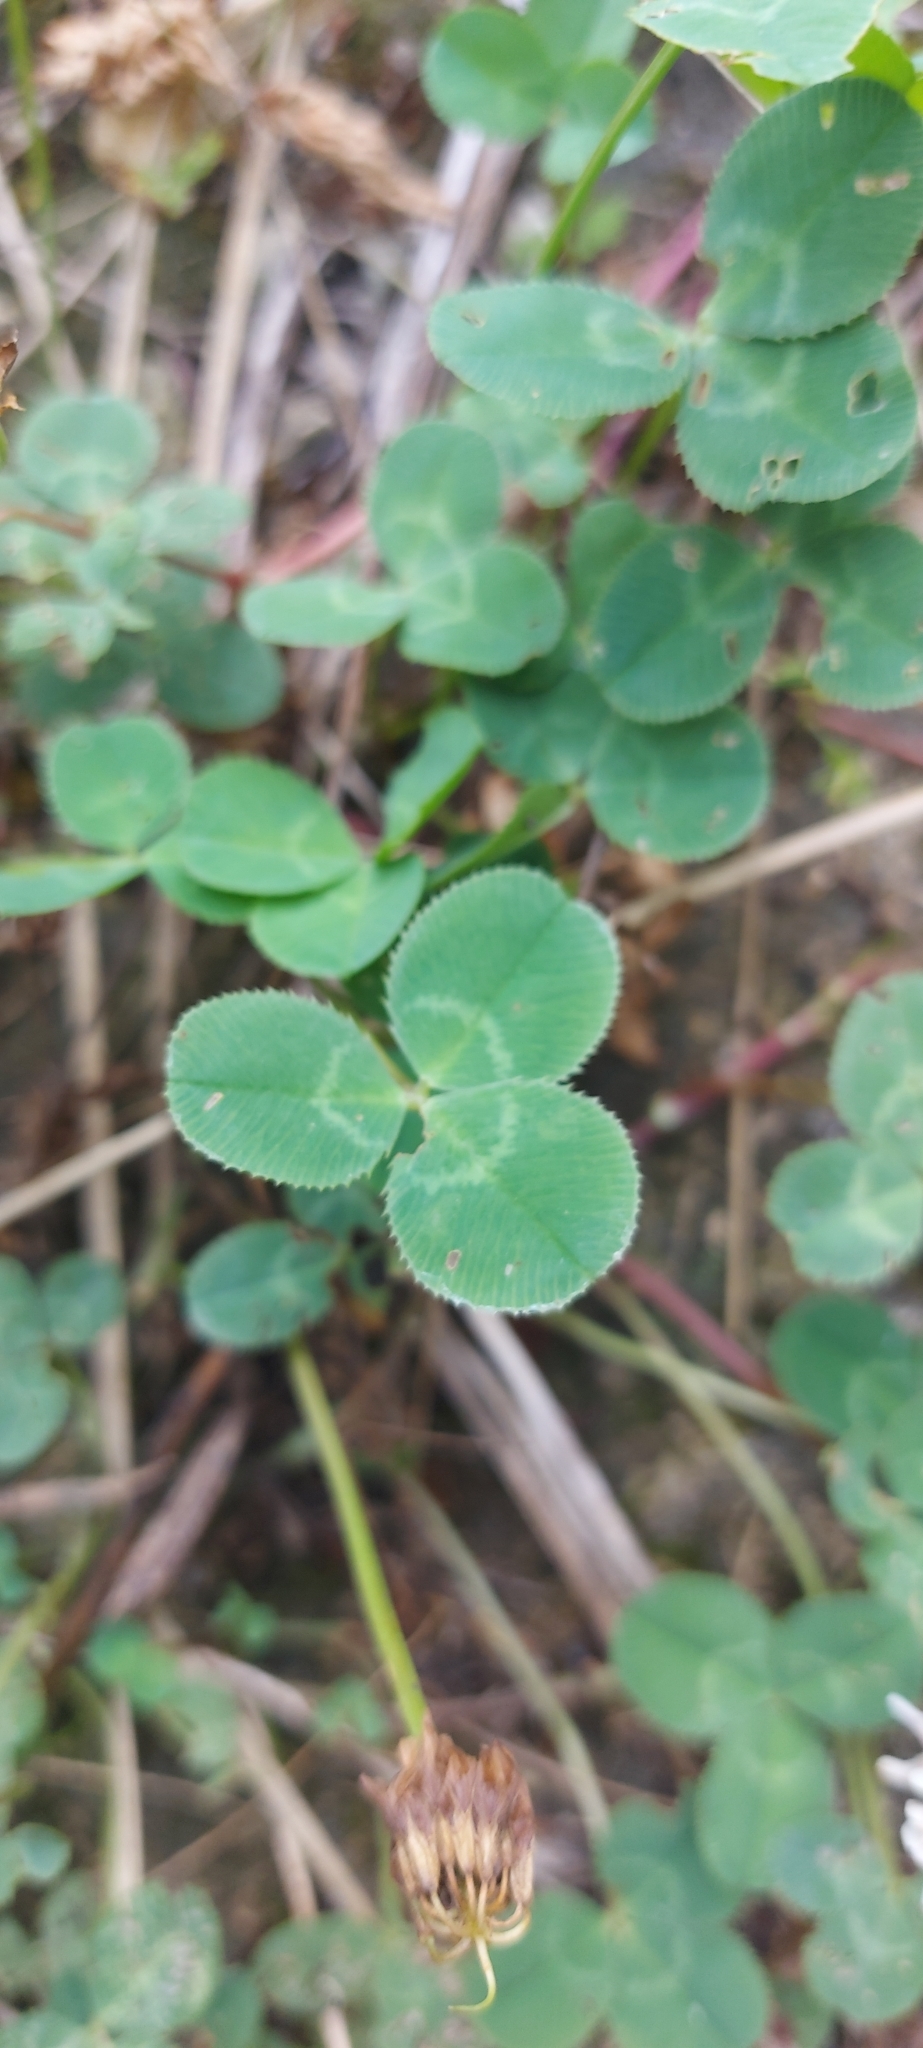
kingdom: Plantae
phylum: Tracheophyta
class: Magnoliopsida
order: Fabales
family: Fabaceae
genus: Trifolium
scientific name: Trifolium repens
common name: White clover
